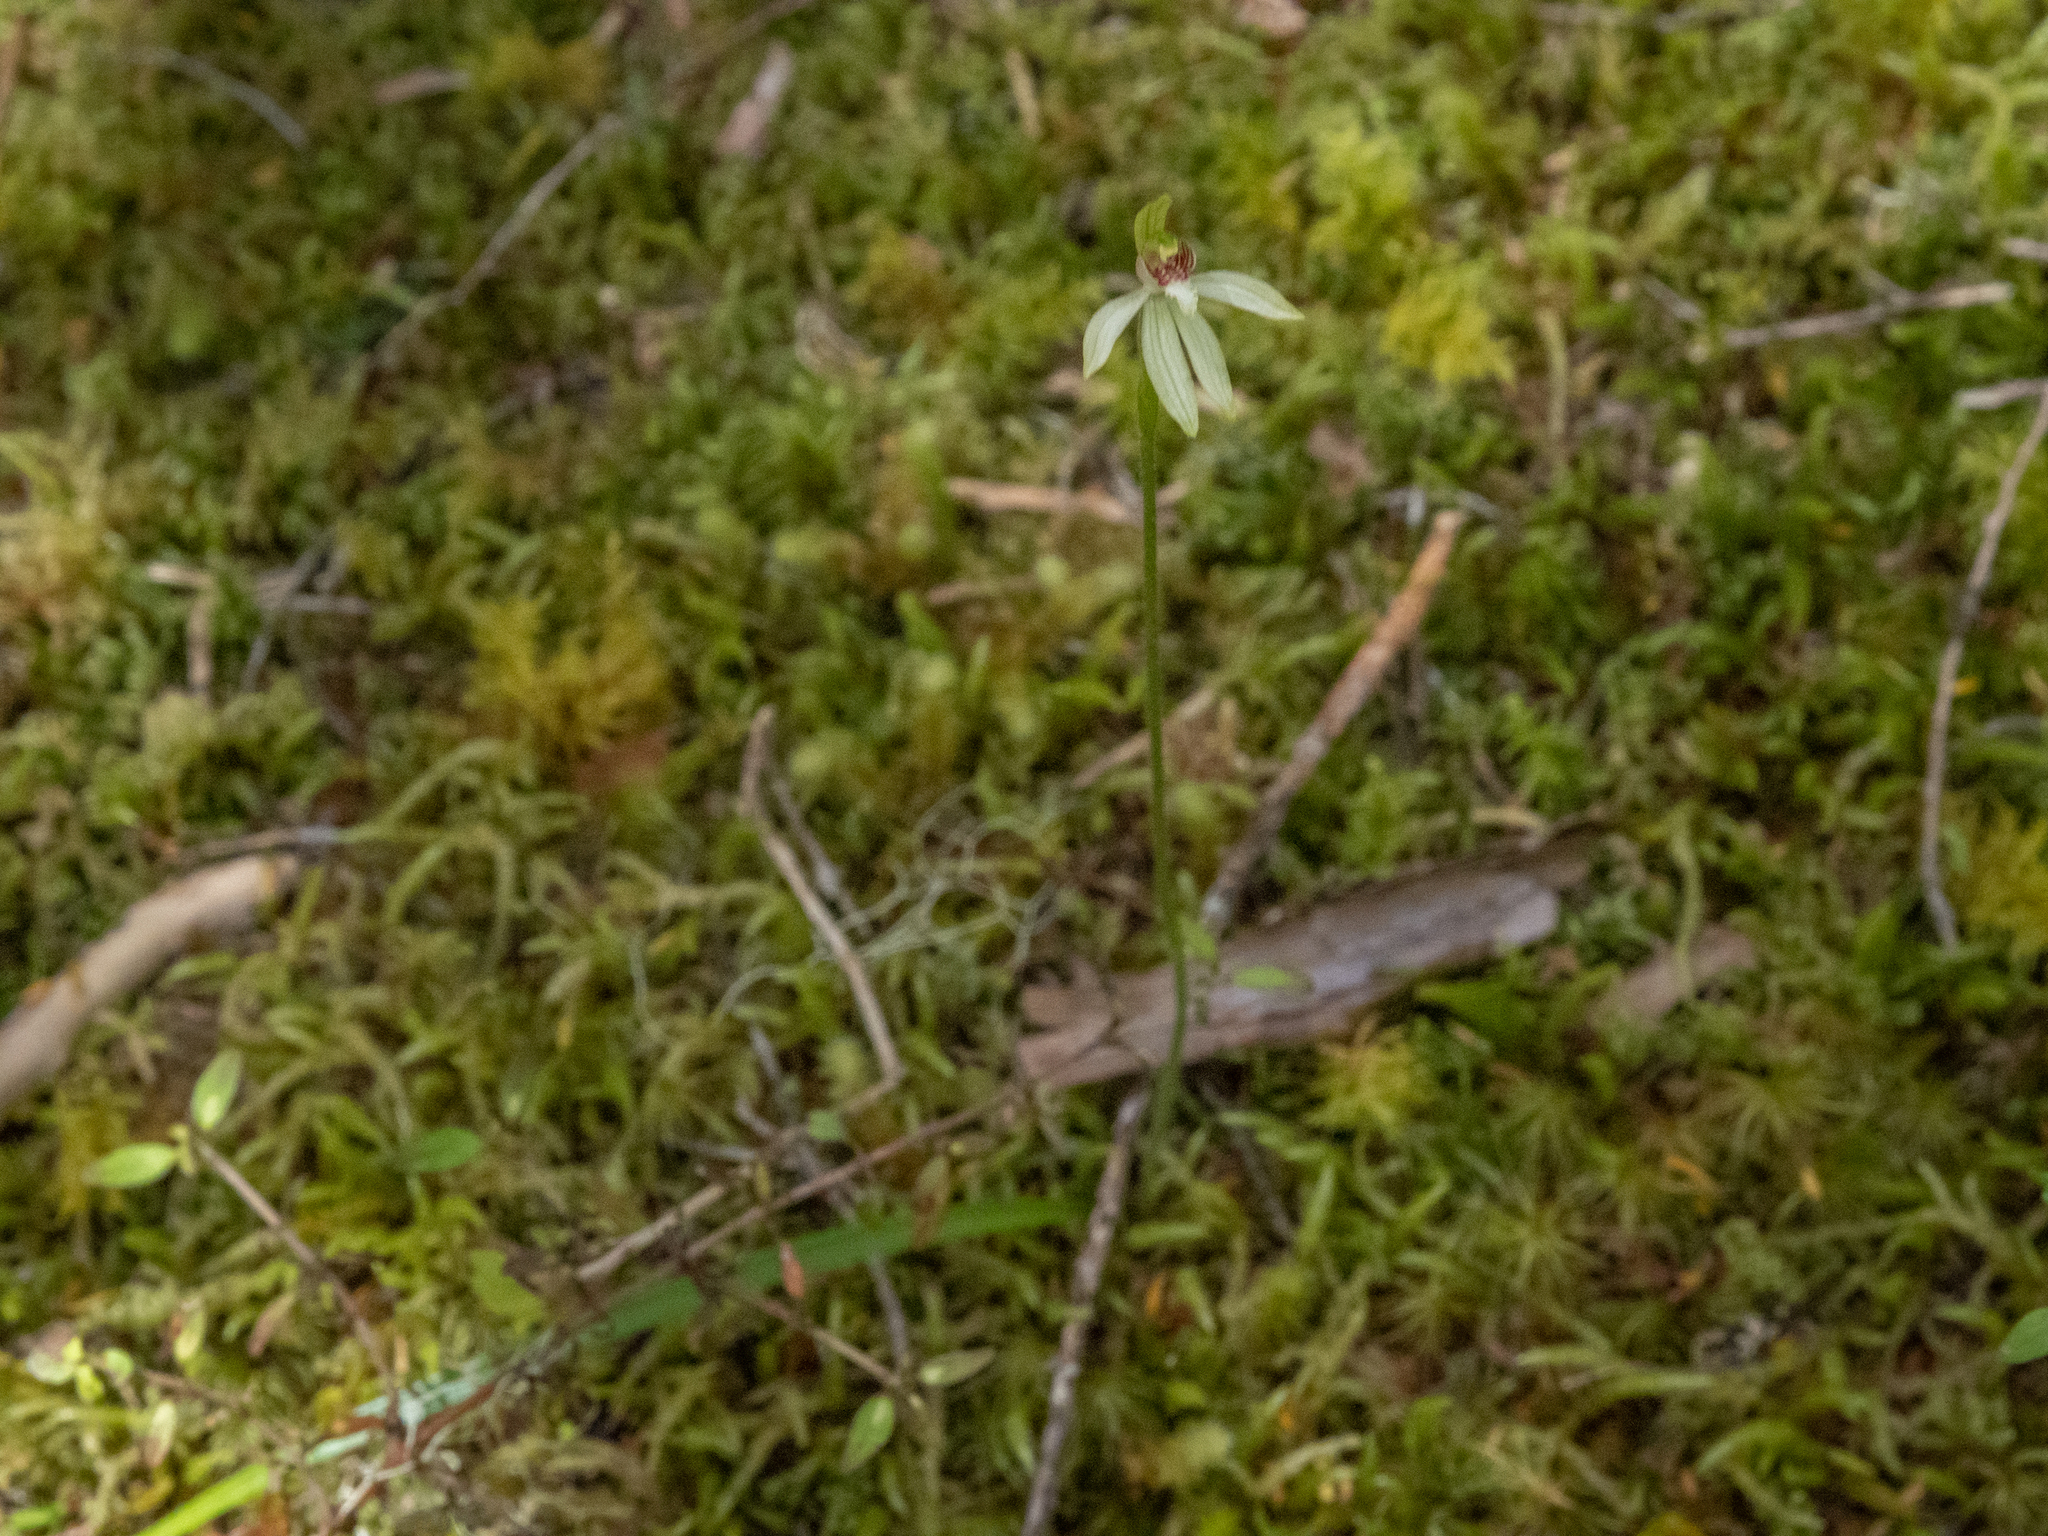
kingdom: Plantae
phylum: Tracheophyta
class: Liliopsida
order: Asparagales
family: Orchidaceae
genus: Caladenia
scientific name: Caladenia chlorostyla
